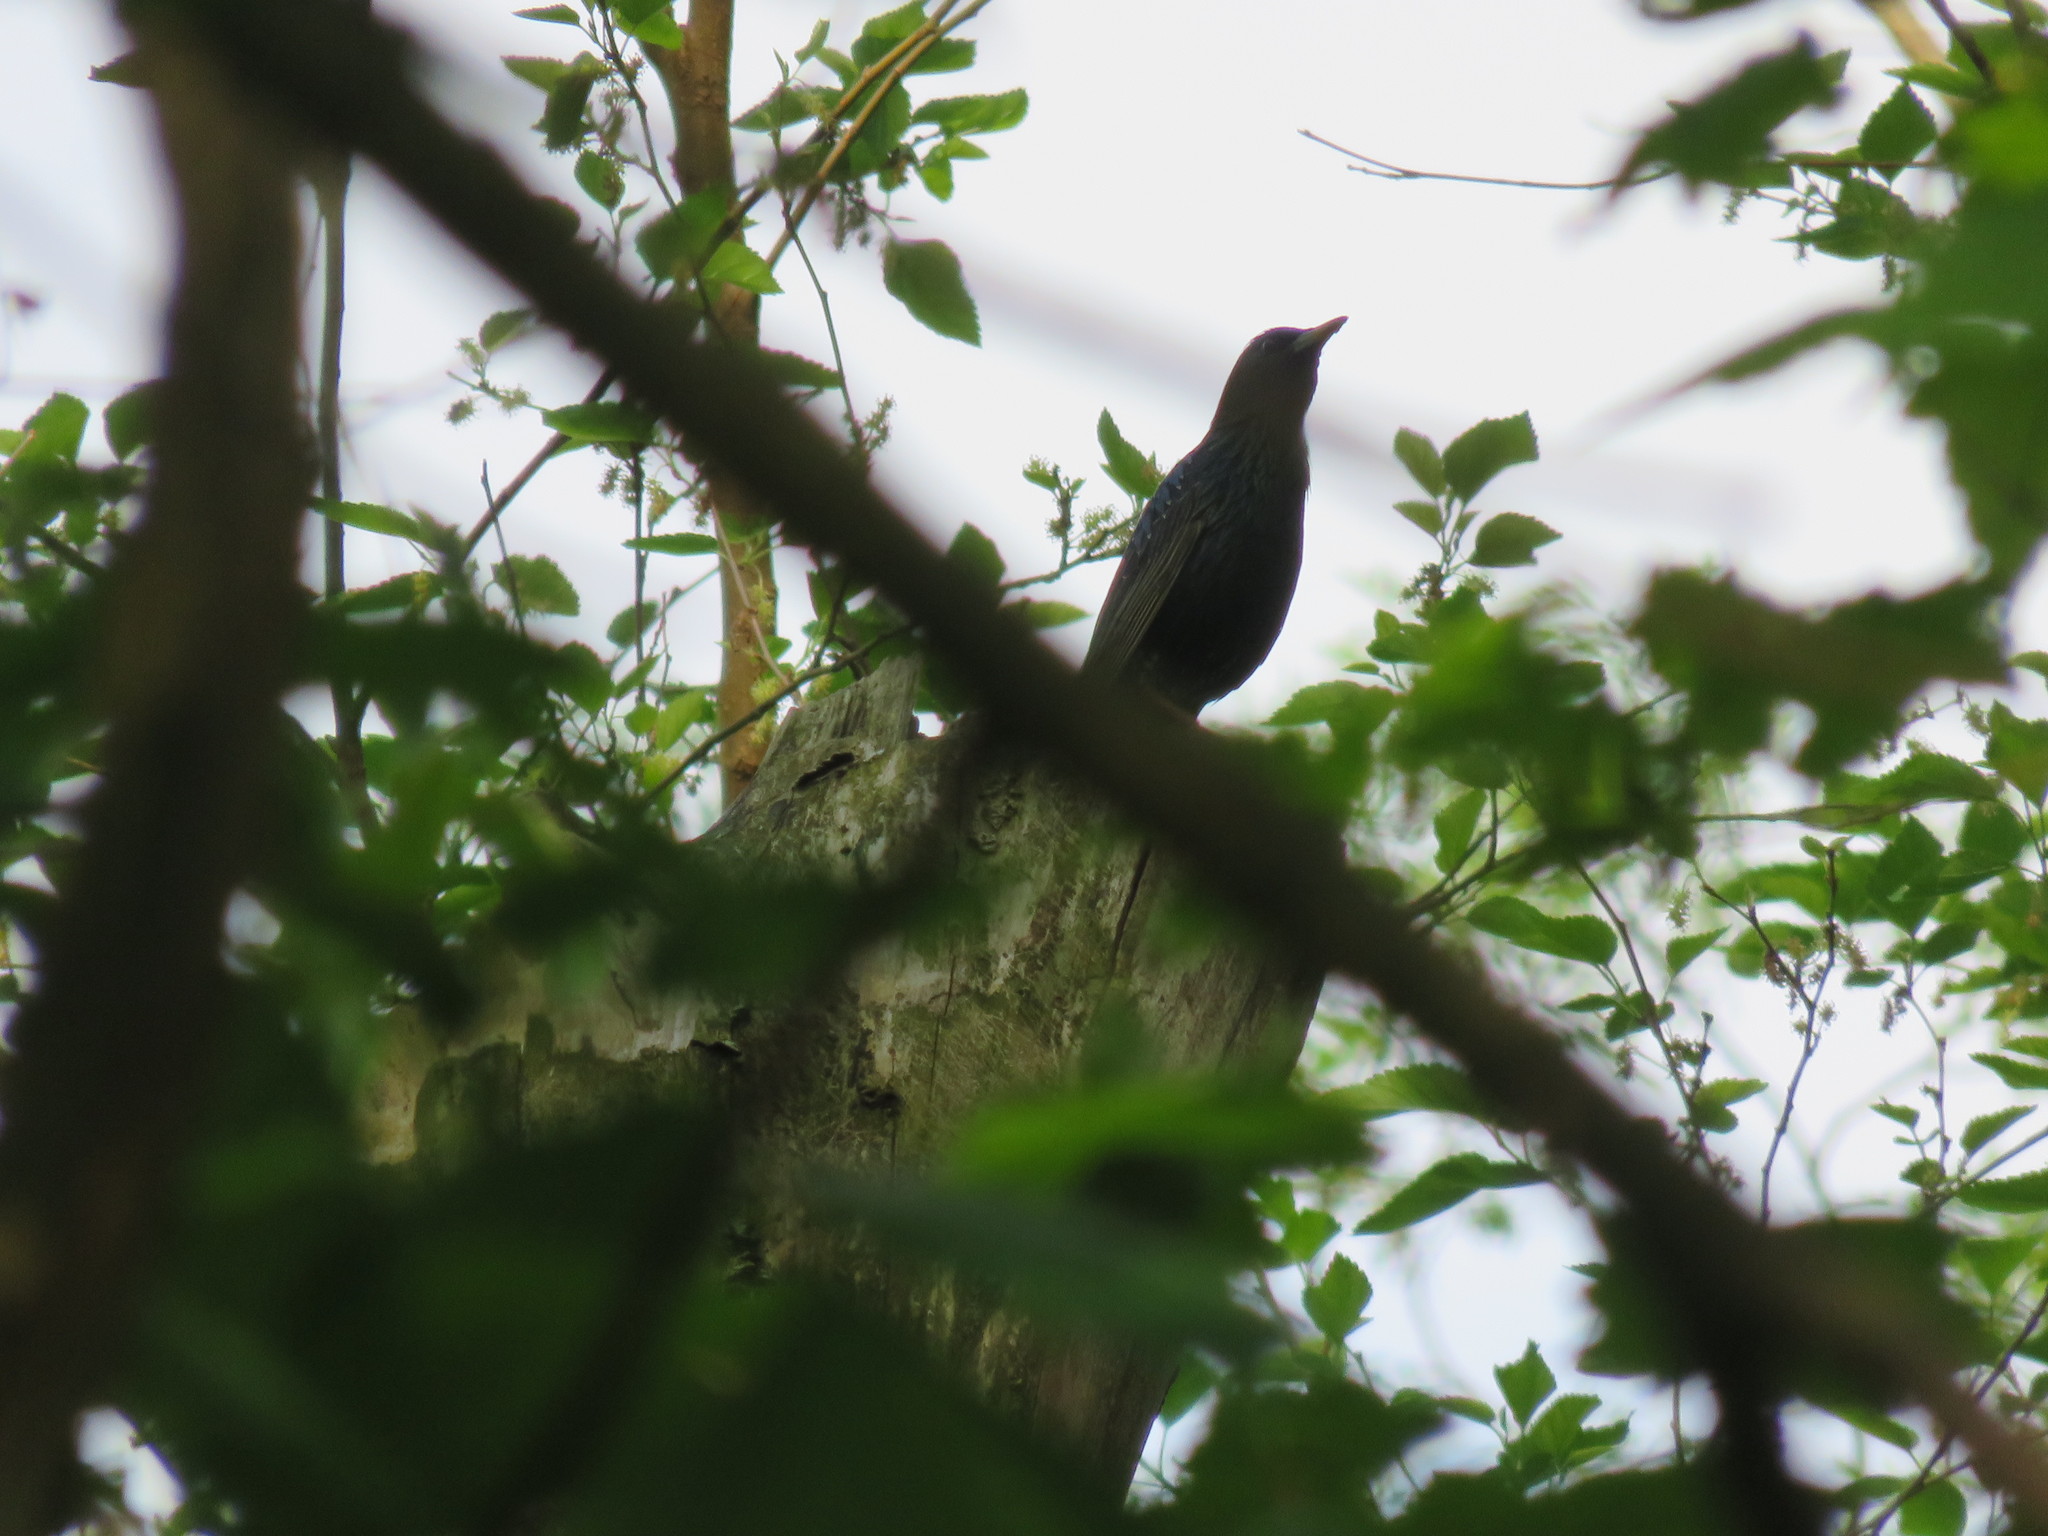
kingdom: Animalia
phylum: Chordata
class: Aves
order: Passeriformes
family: Sturnidae
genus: Sturnus
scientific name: Sturnus vulgaris
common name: Common starling
